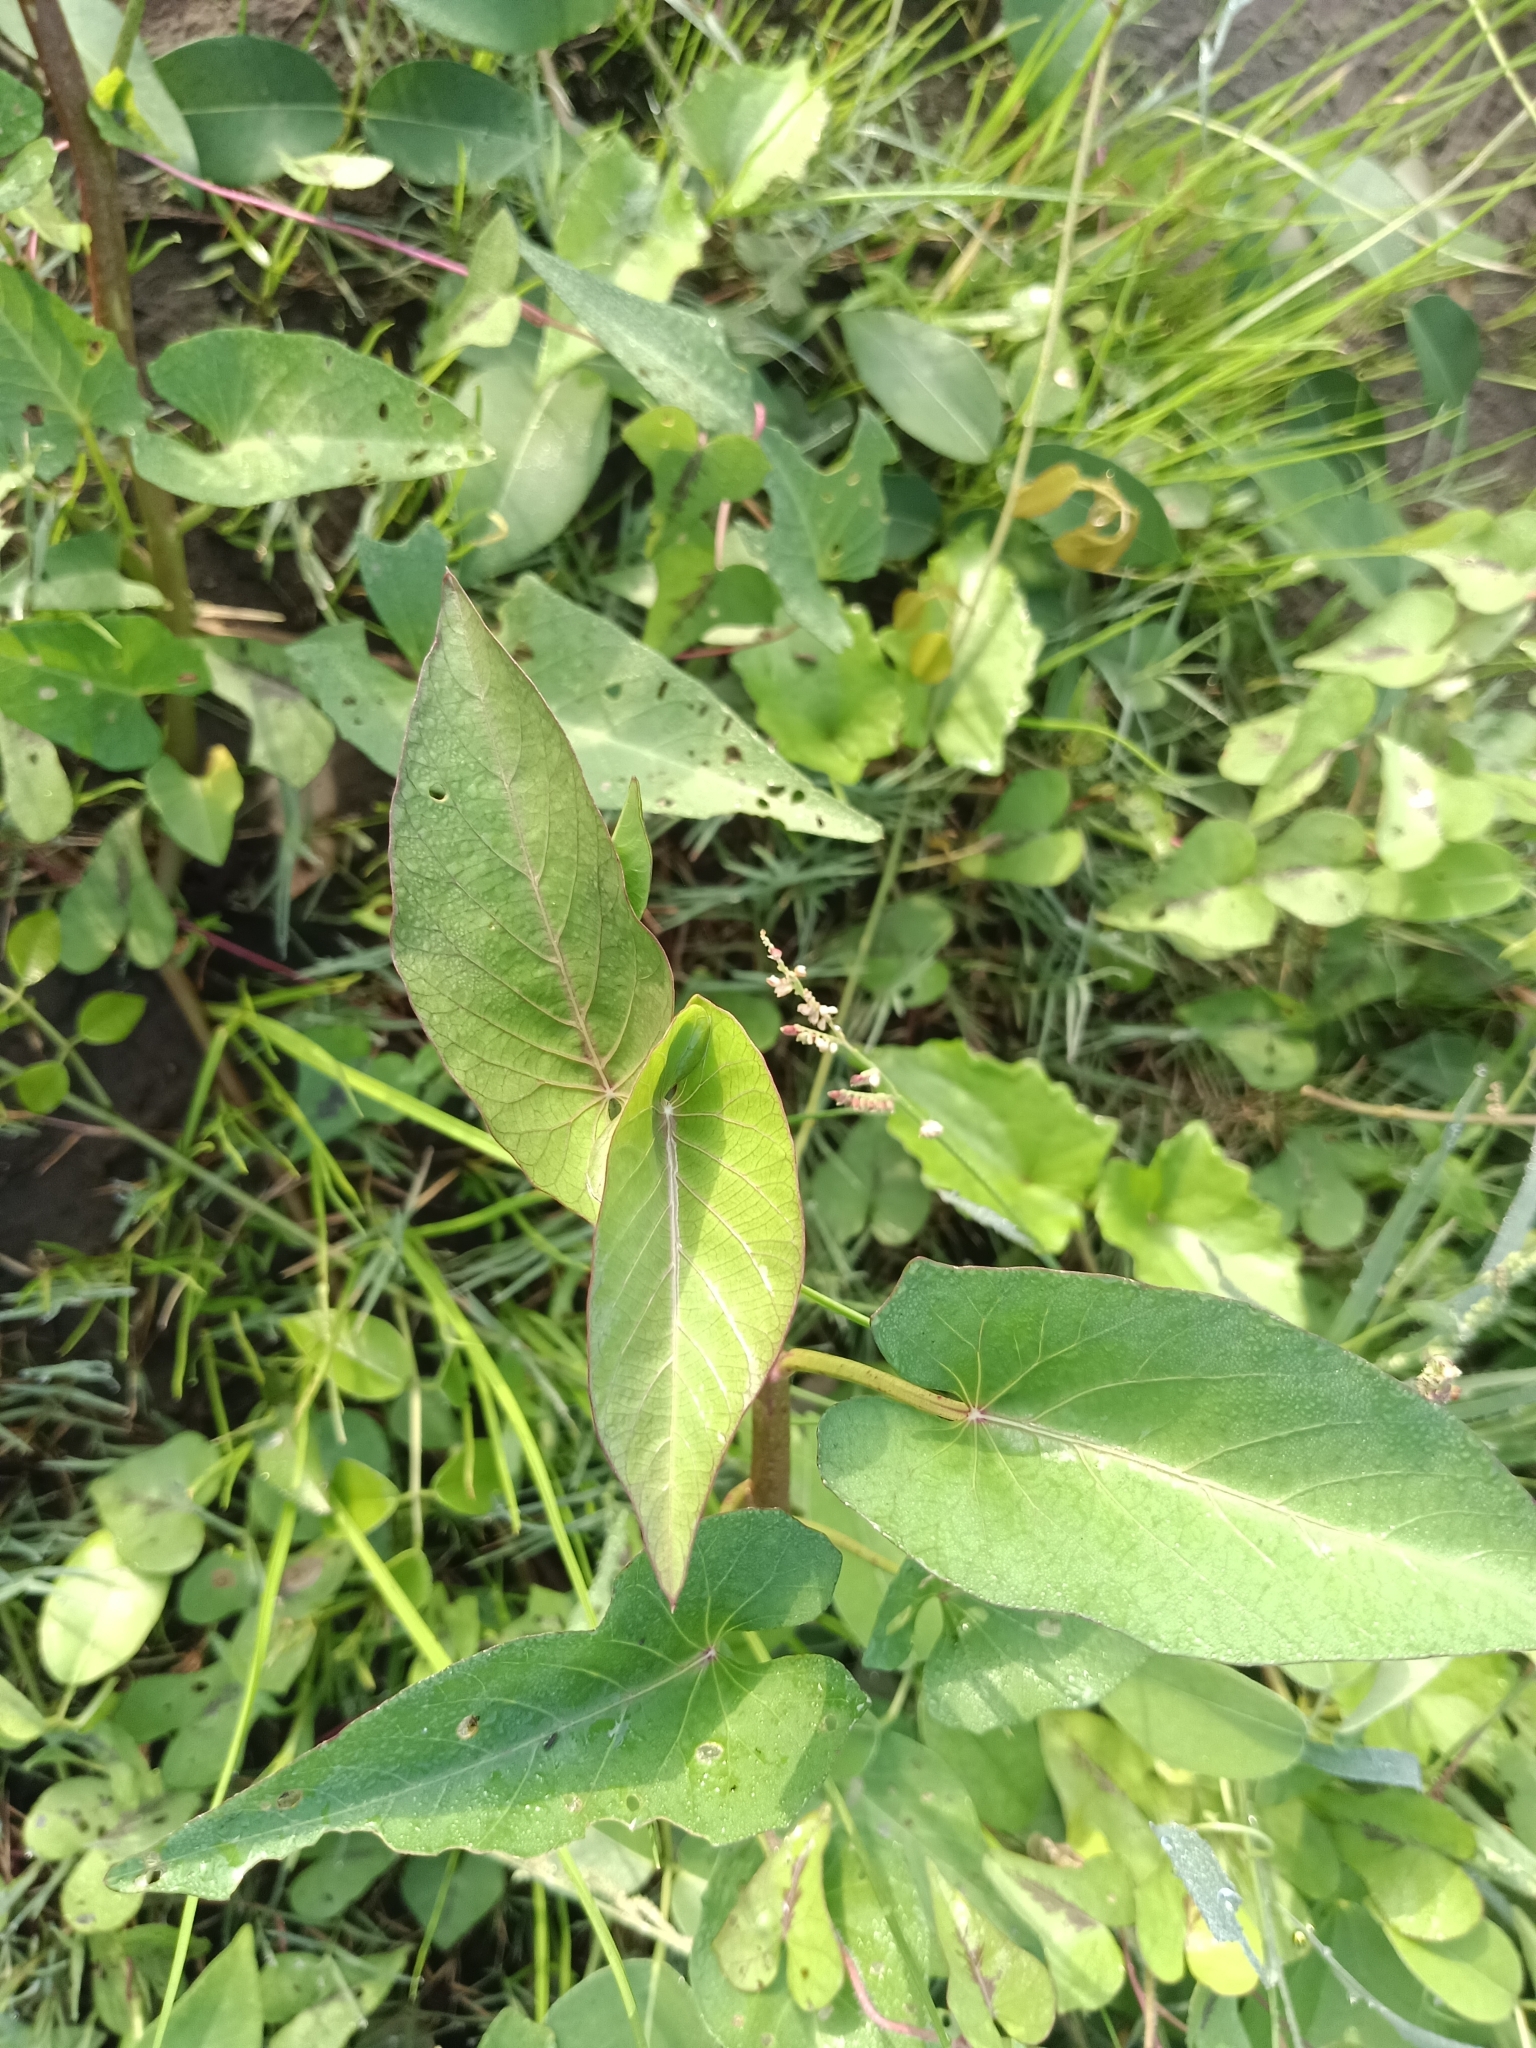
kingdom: Plantae
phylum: Tracheophyta
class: Magnoliopsida
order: Solanales
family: Convolvulaceae
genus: Ipomoea
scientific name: Ipomoea aquatica
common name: Swamp morning-glory
